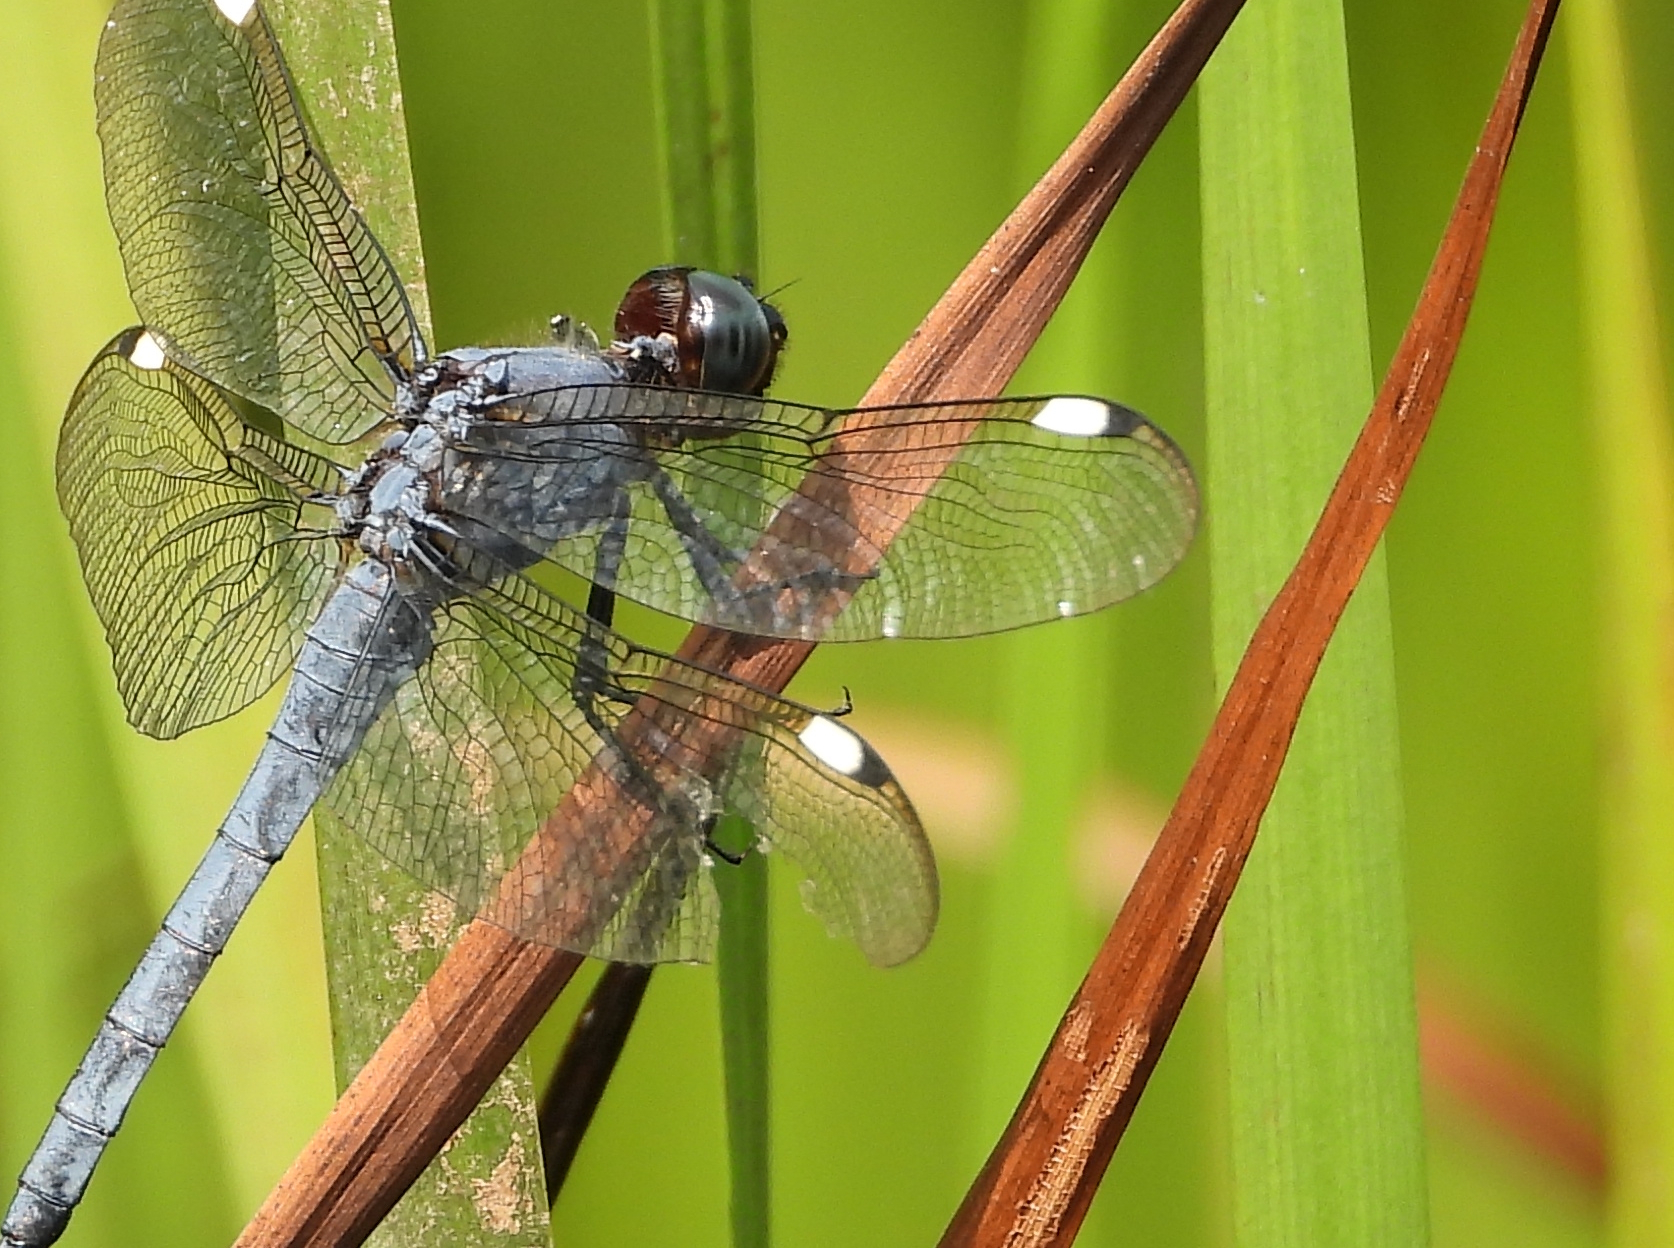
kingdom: Animalia
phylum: Arthropoda
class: Insecta
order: Odonata
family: Libellulidae
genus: Libellula
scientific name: Libellula cyanea
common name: Spangled skimmer
